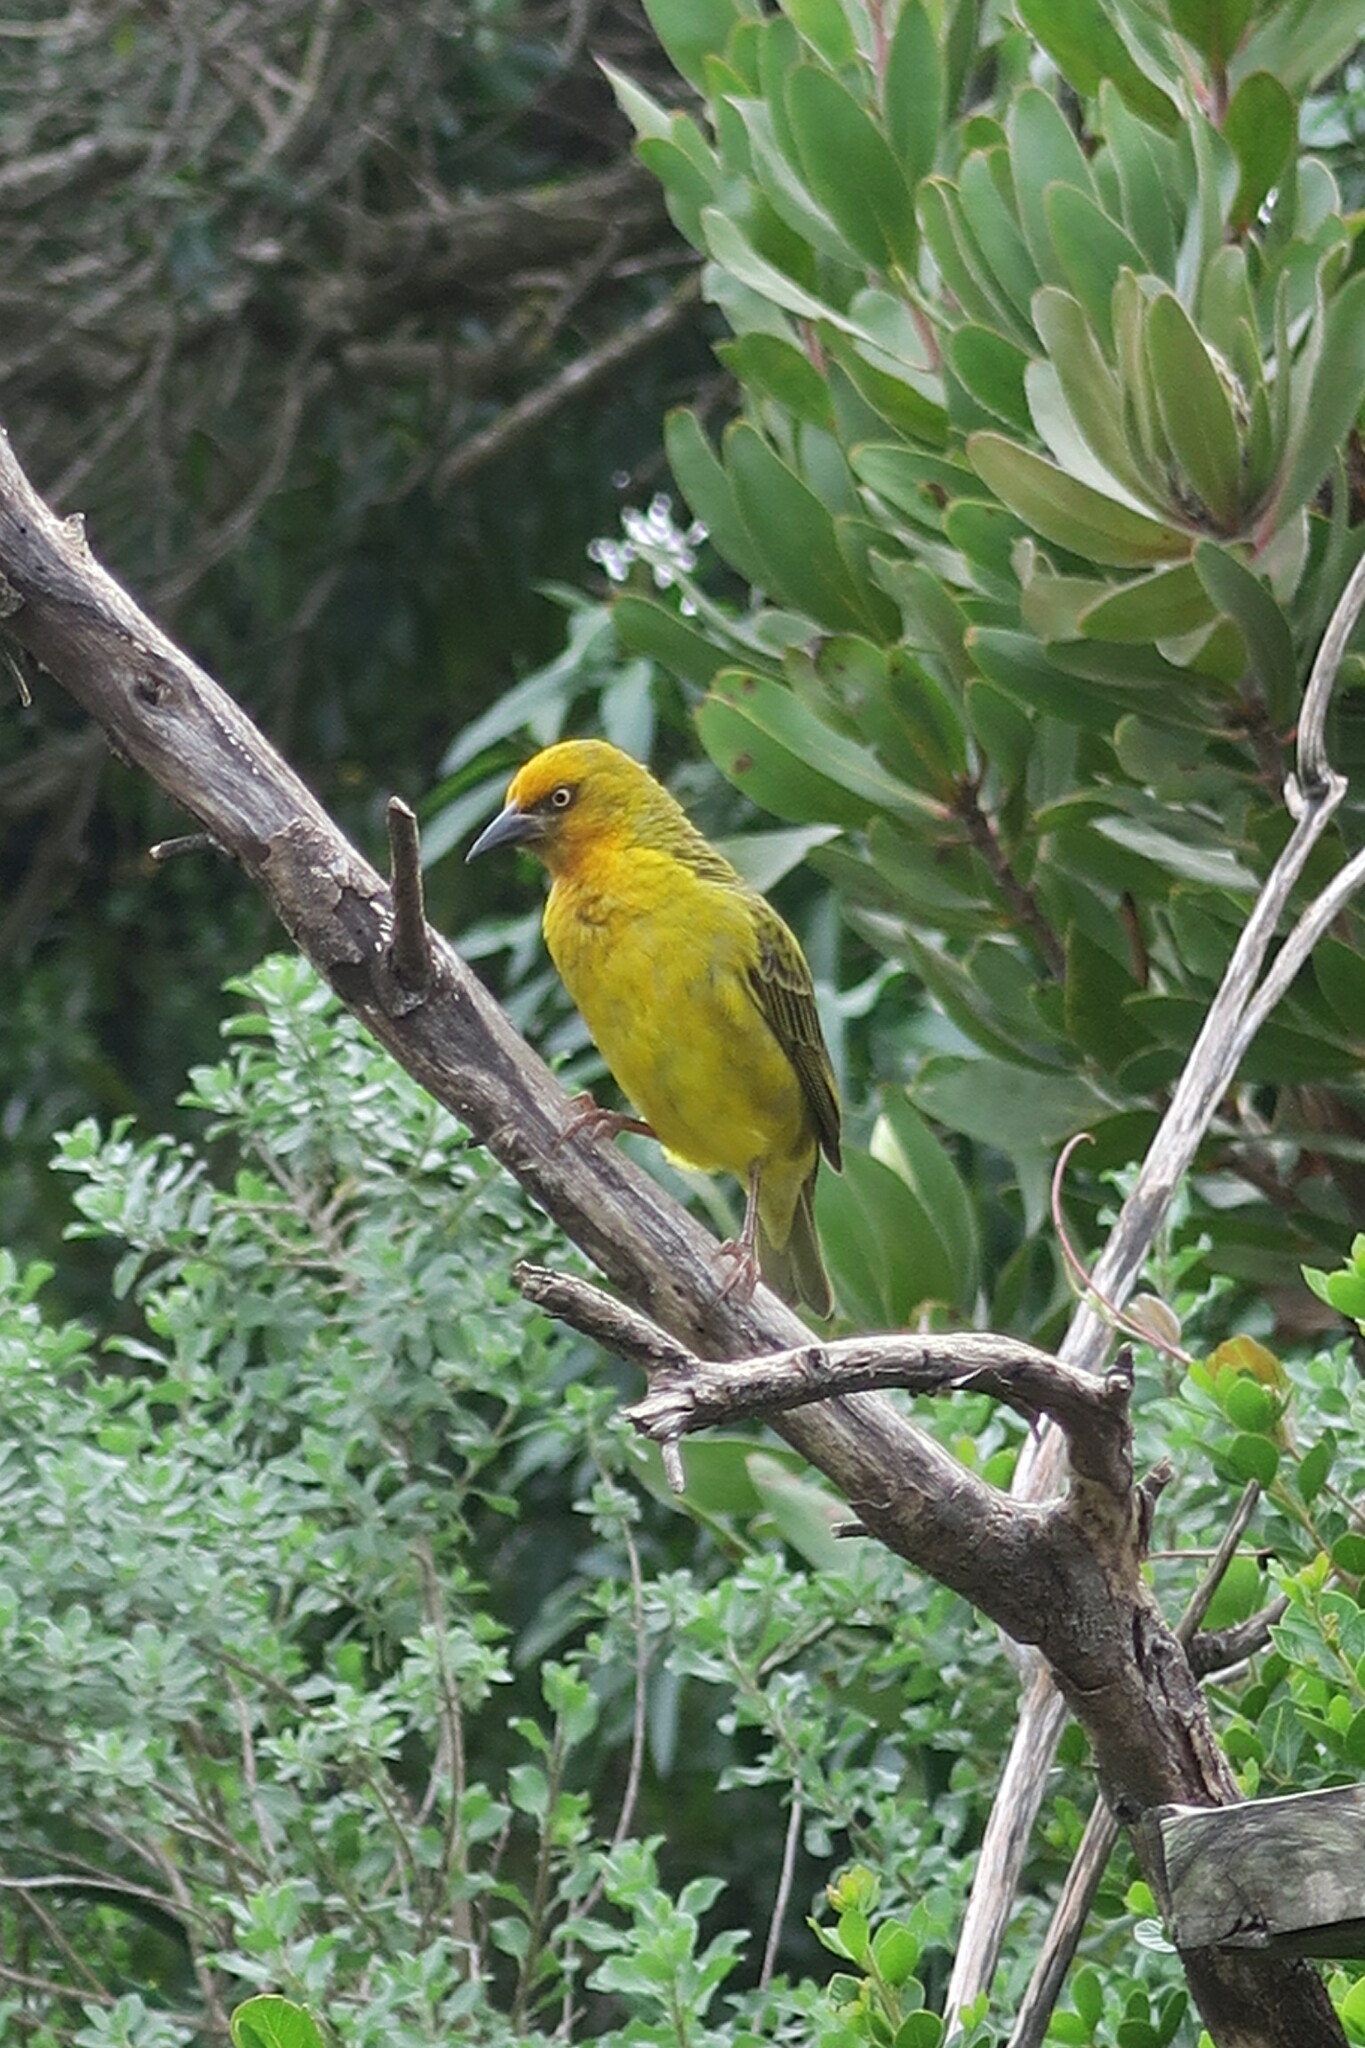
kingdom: Animalia
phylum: Chordata
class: Aves
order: Passeriformes
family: Ploceidae
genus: Ploceus
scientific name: Ploceus capensis
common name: Cape weaver
